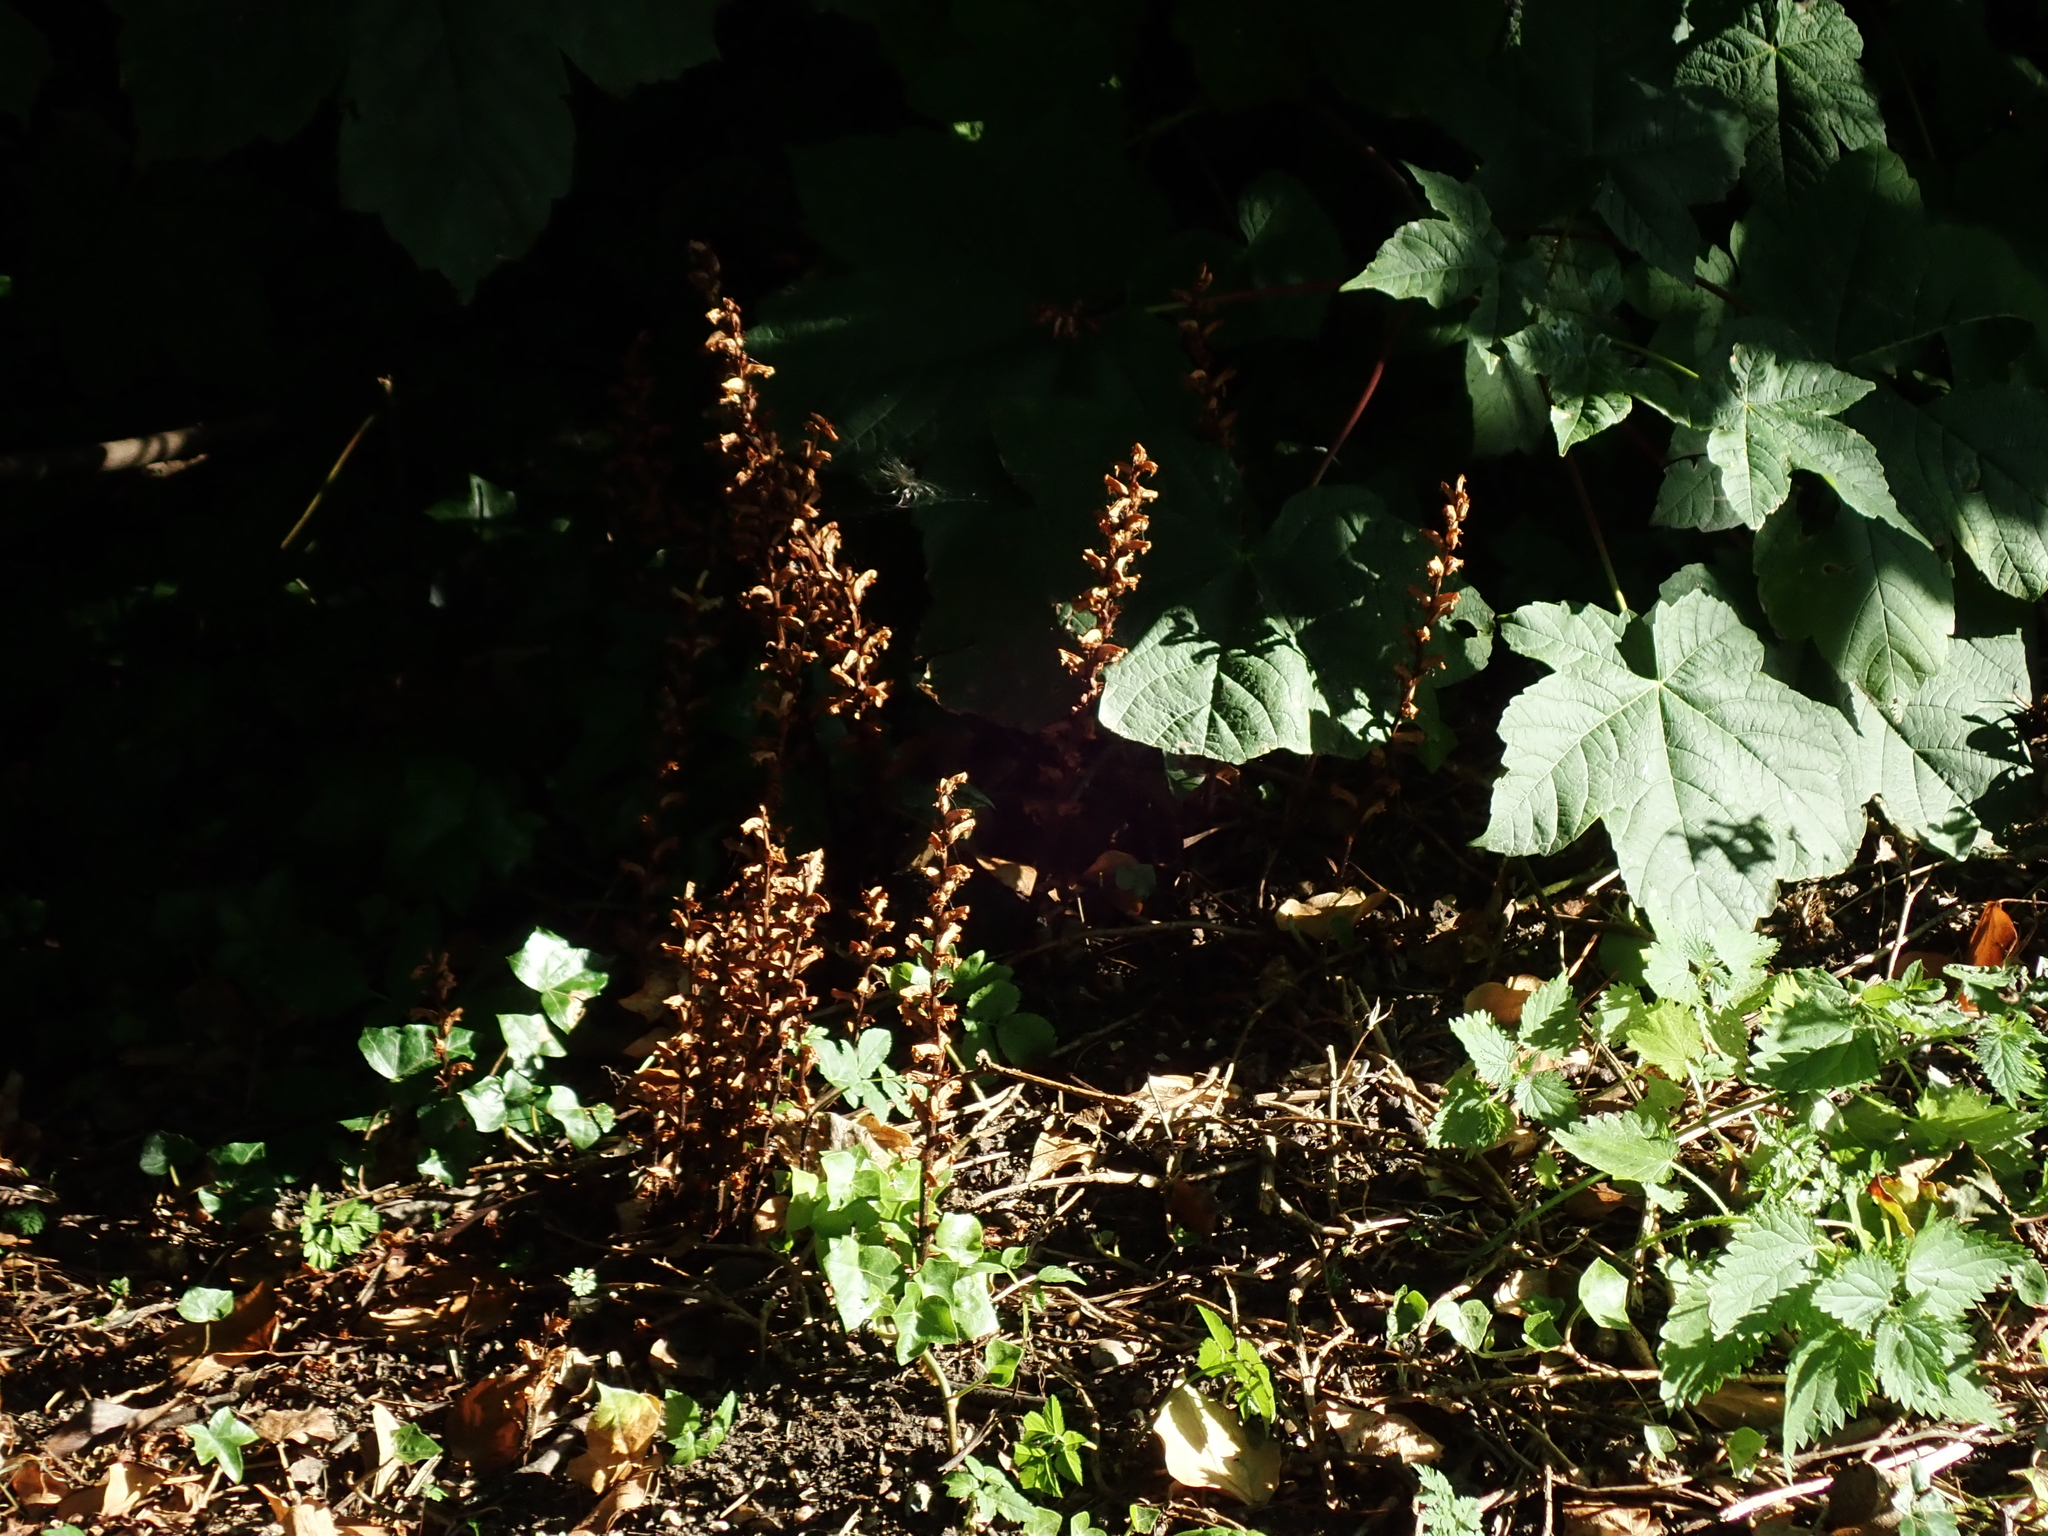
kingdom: Plantae
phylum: Tracheophyta
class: Magnoliopsida
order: Lamiales
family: Orobanchaceae
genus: Orobanche
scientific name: Orobanche hederae
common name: Ivy broomrape
